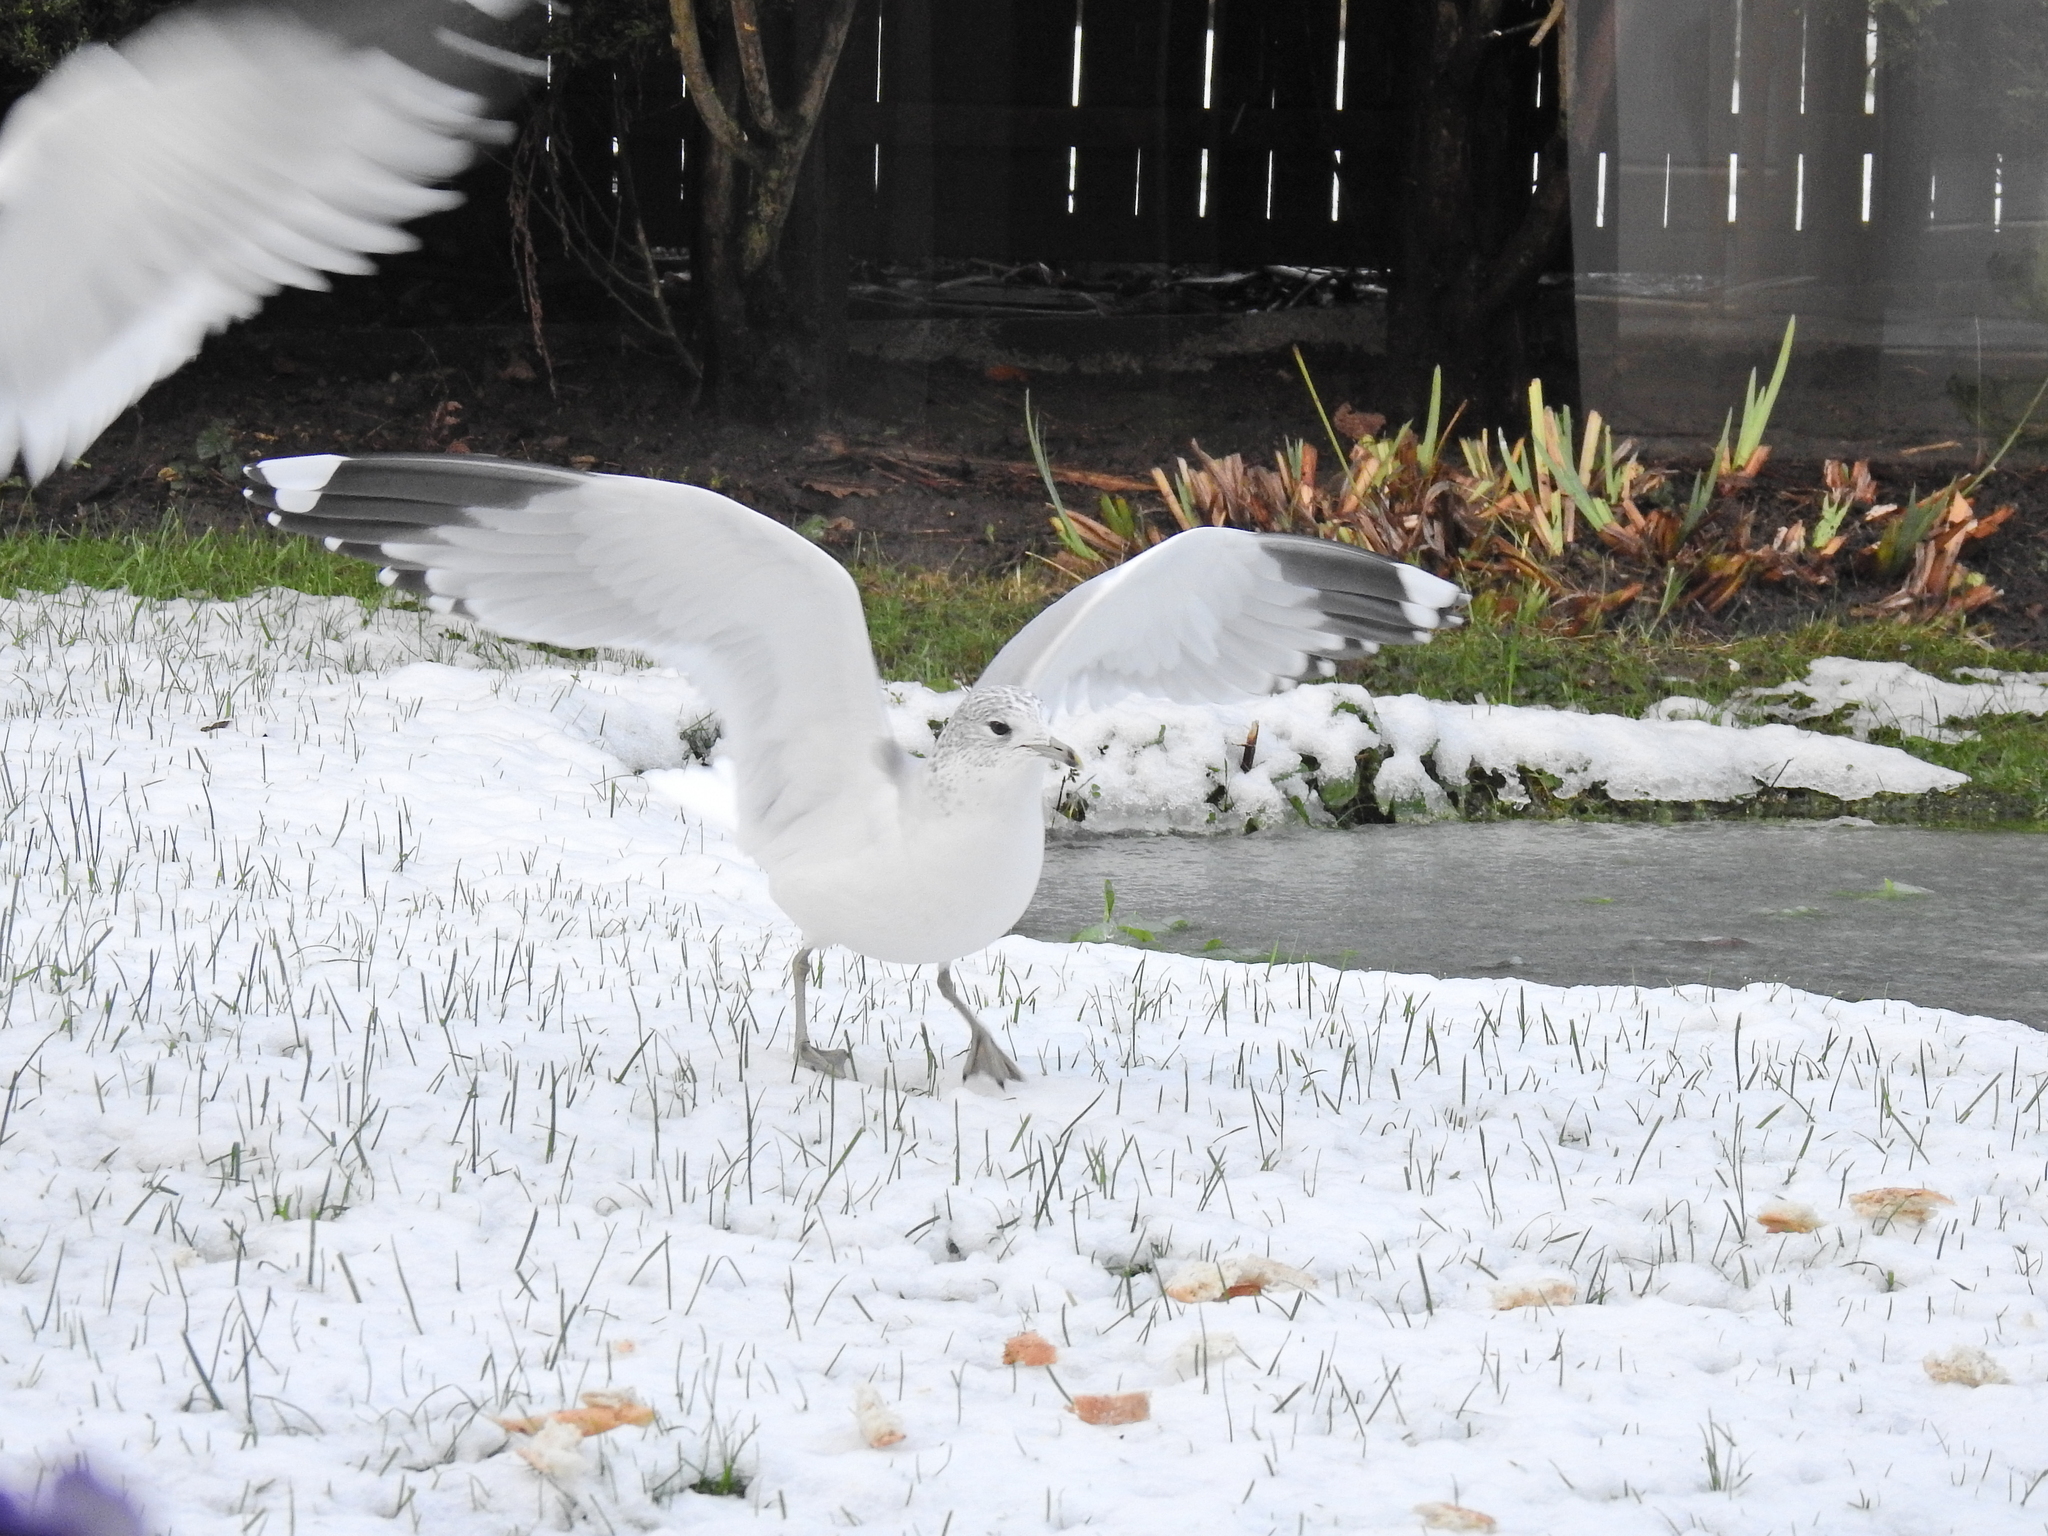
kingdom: Animalia
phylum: Chordata
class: Aves
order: Charadriiformes
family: Laridae
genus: Larus
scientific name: Larus canus
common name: Mew gull
